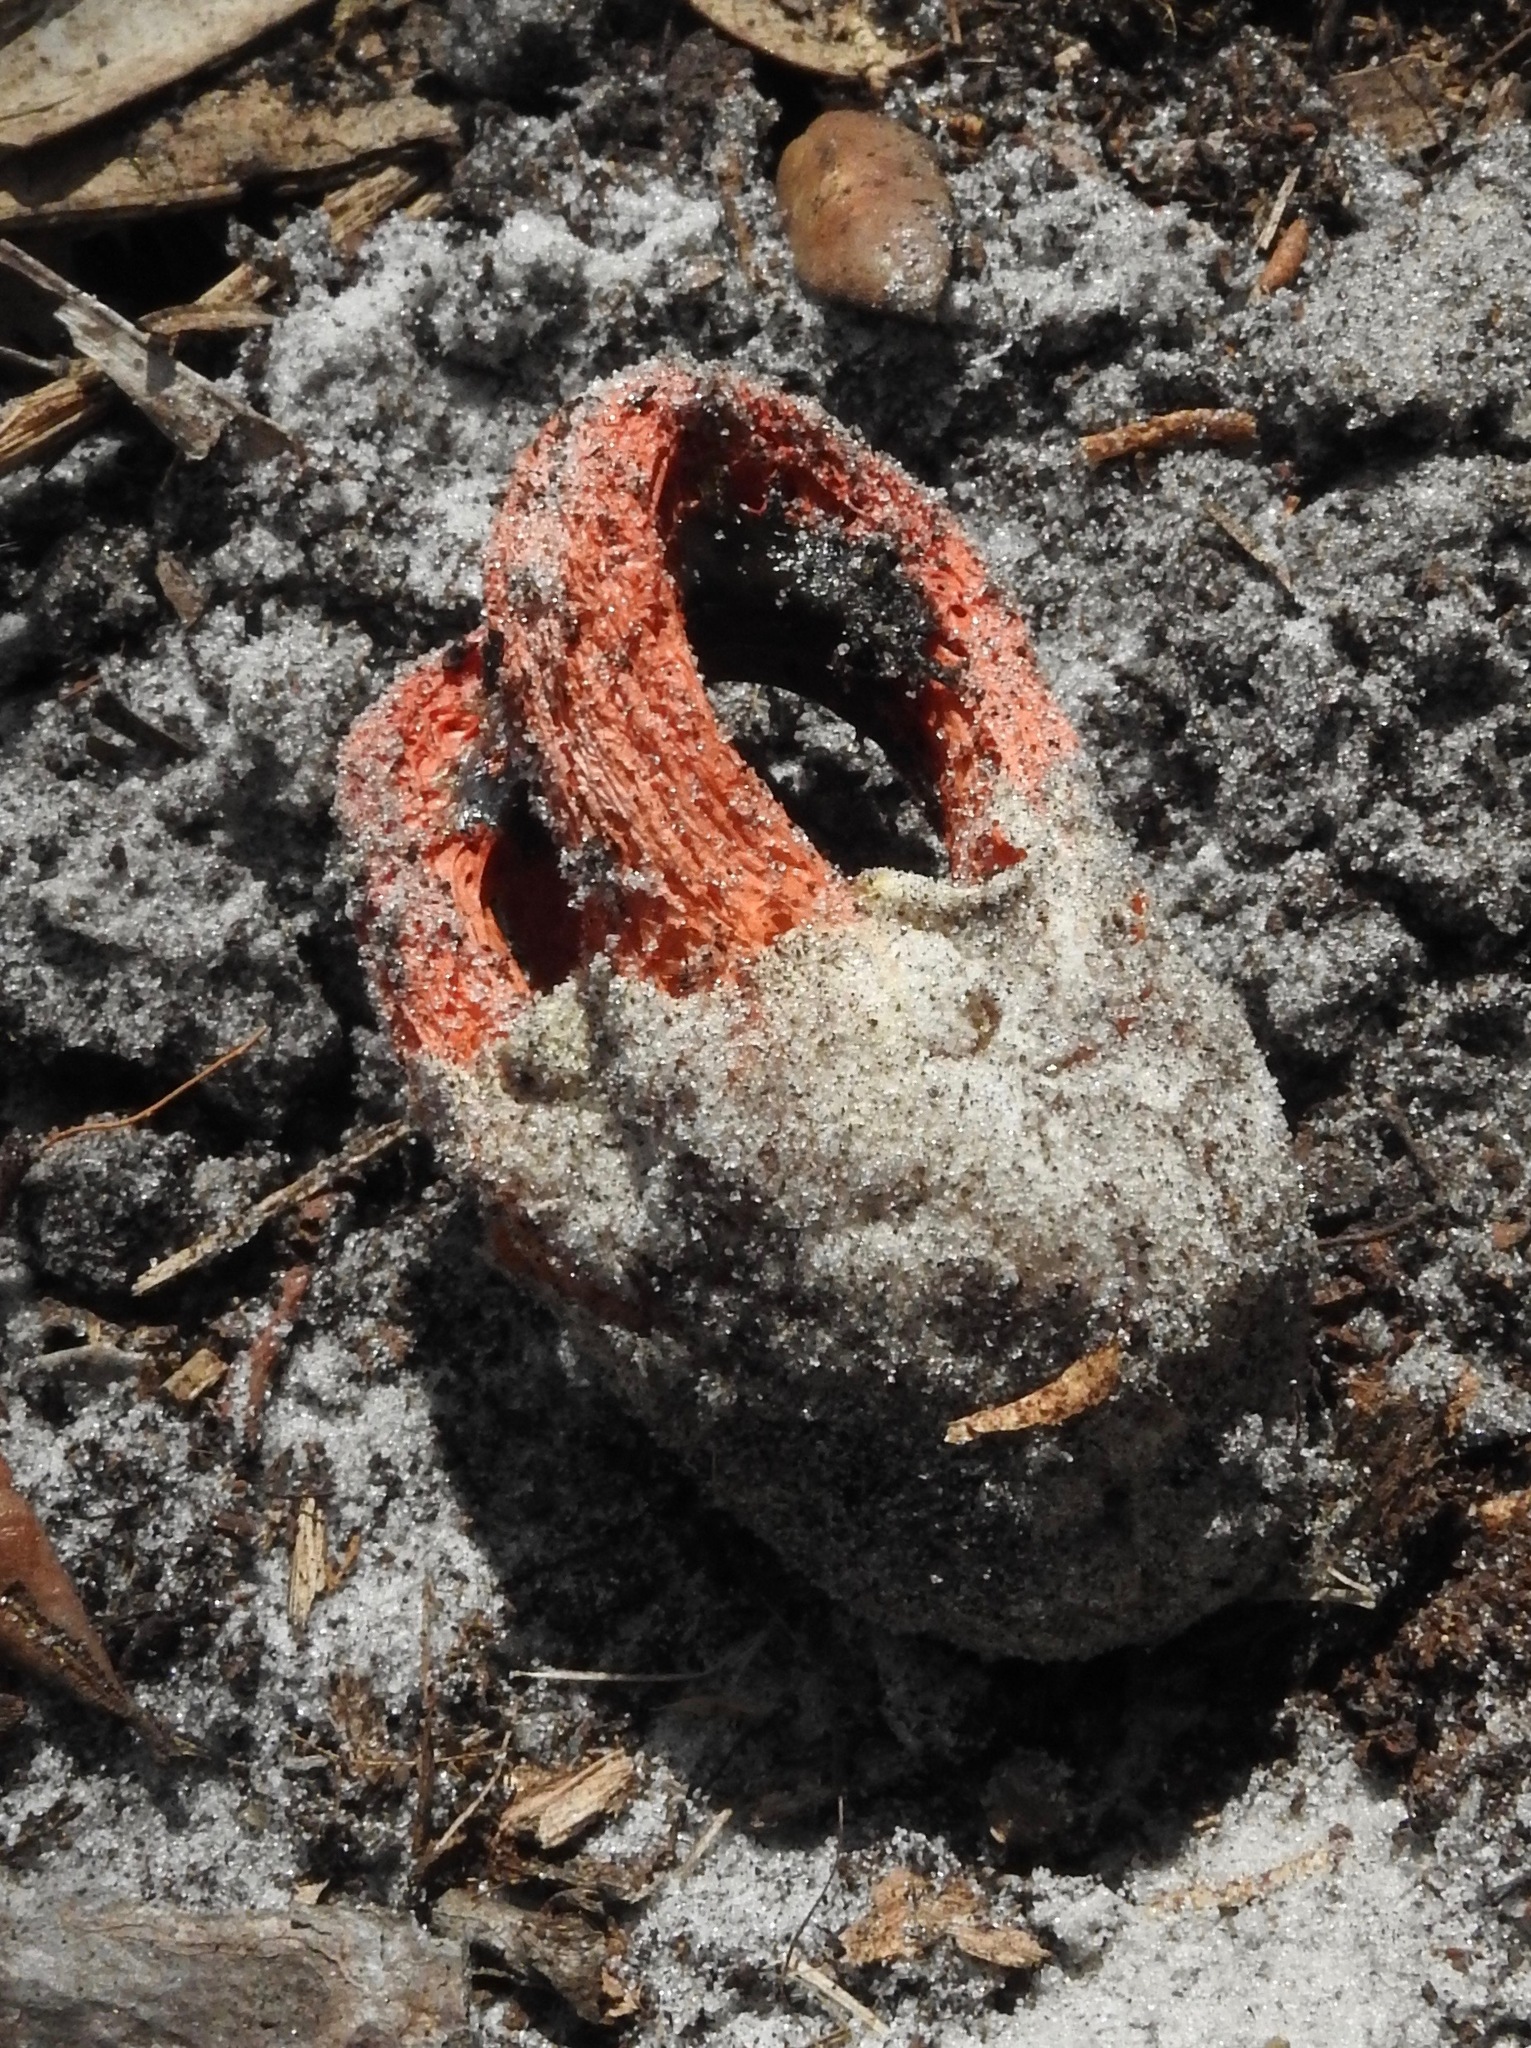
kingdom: Fungi
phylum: Basidiomycota
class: Agaricomycetes
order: Phallales
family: Phallaceae
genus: Clathrus
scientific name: Clathrus columnatus
